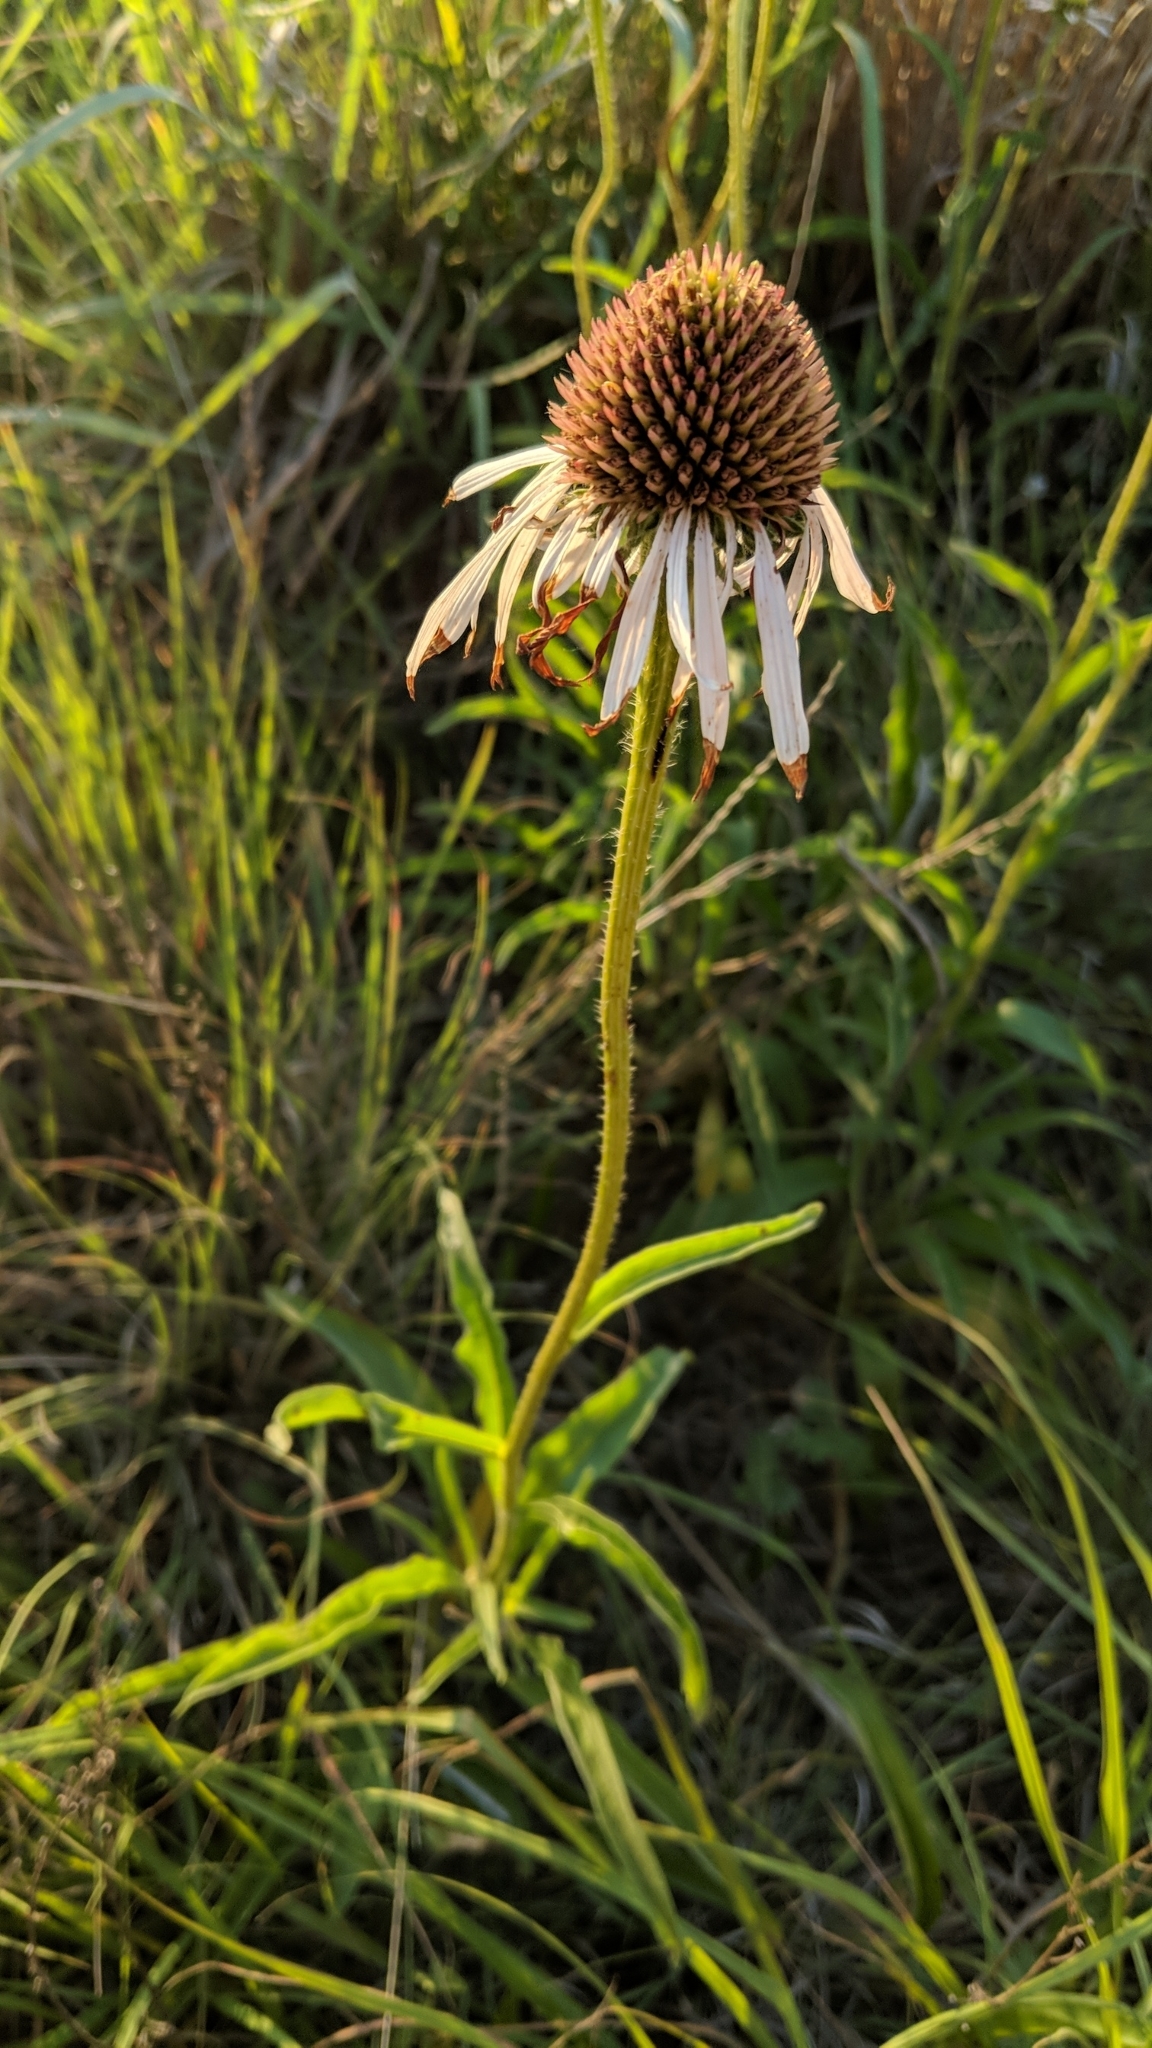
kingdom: Plantae
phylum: Tracheophyta
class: Magnoliopsida
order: Asterales
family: Asteraceae
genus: Echinacea
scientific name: Echinacea angustifolia
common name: Black-sampson echinacea
